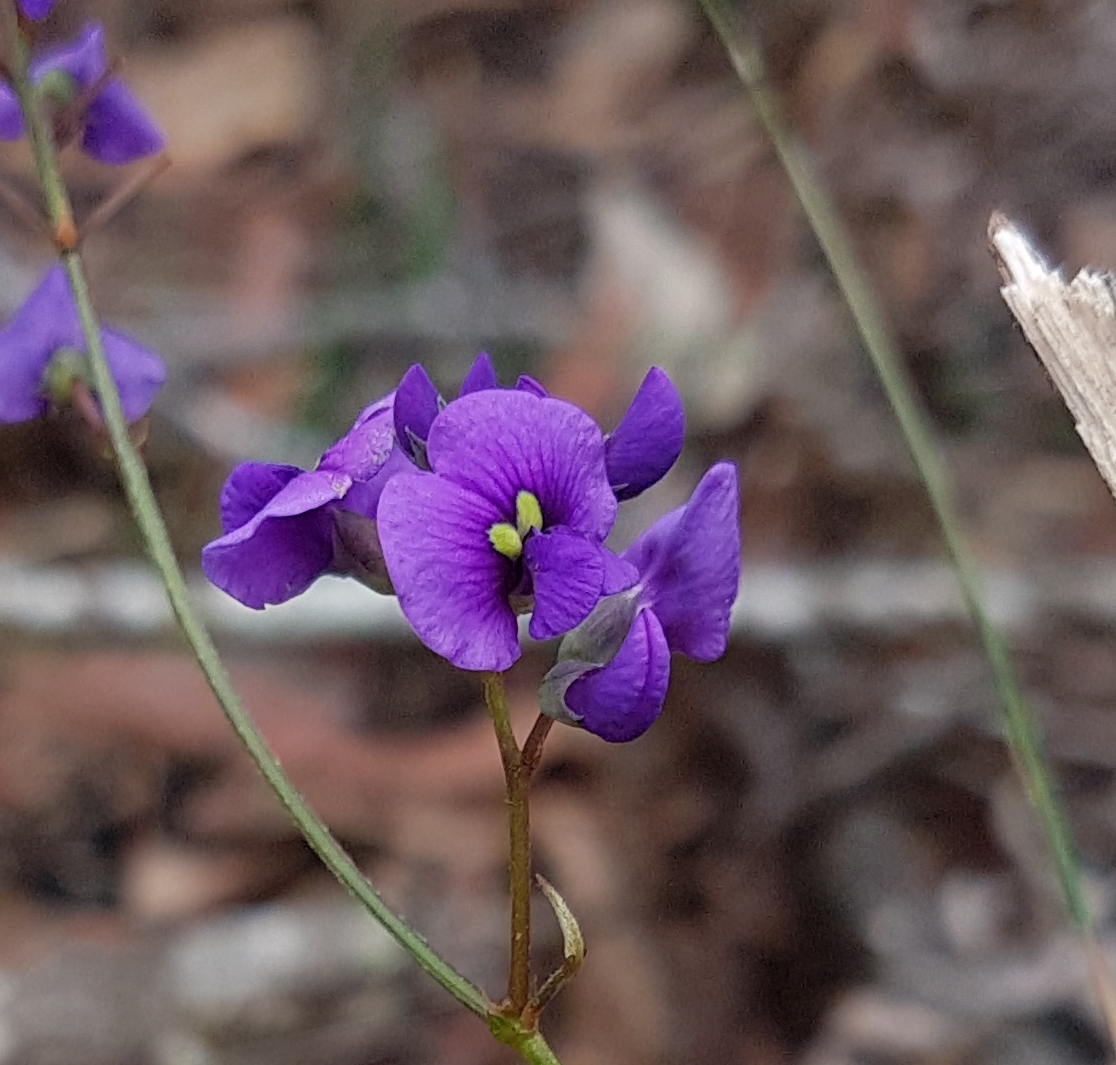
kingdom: Plantae
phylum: Tracheophyta
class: Magnoliopsida
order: Fabales
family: Fabaceae
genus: Hardenbergia
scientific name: Hardenbergia violacea
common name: Coral-pea
